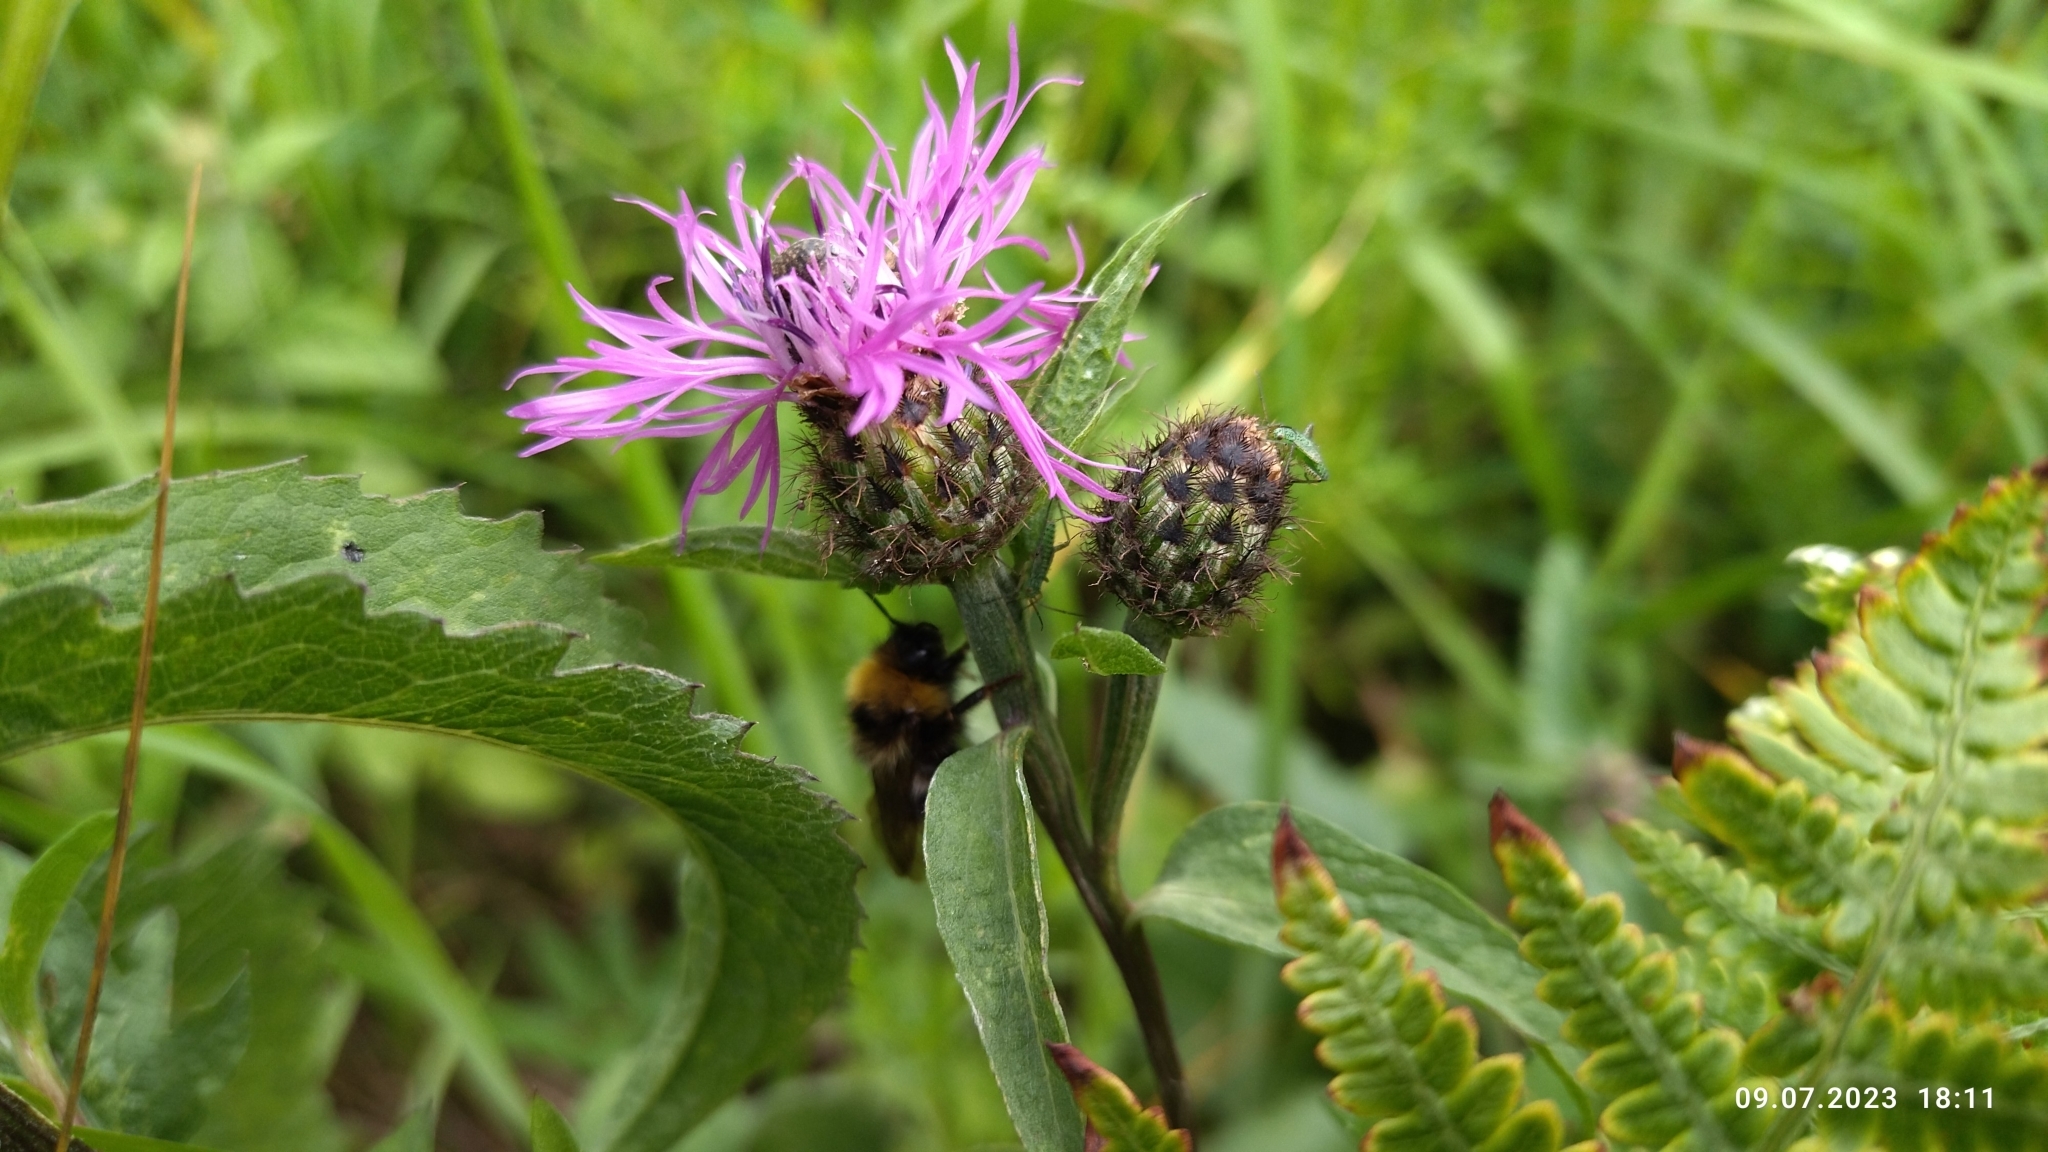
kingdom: Plantae
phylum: Tracheophyta
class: Magnoliopsida
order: Asterales
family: Asteraceae
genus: Centaurea
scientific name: Centaurea phrygia
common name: Wig knapweed
